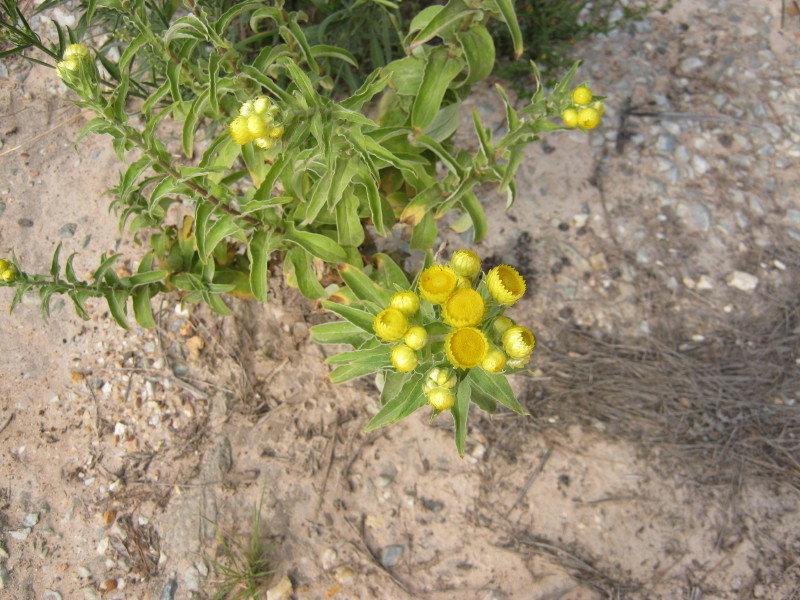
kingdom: Plantae
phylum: Tracheophyta
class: Magnoliopsida
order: Asterales
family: Asteraceae
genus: Helichrysum
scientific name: Helichrysum foetidum
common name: Stinking everlasting
